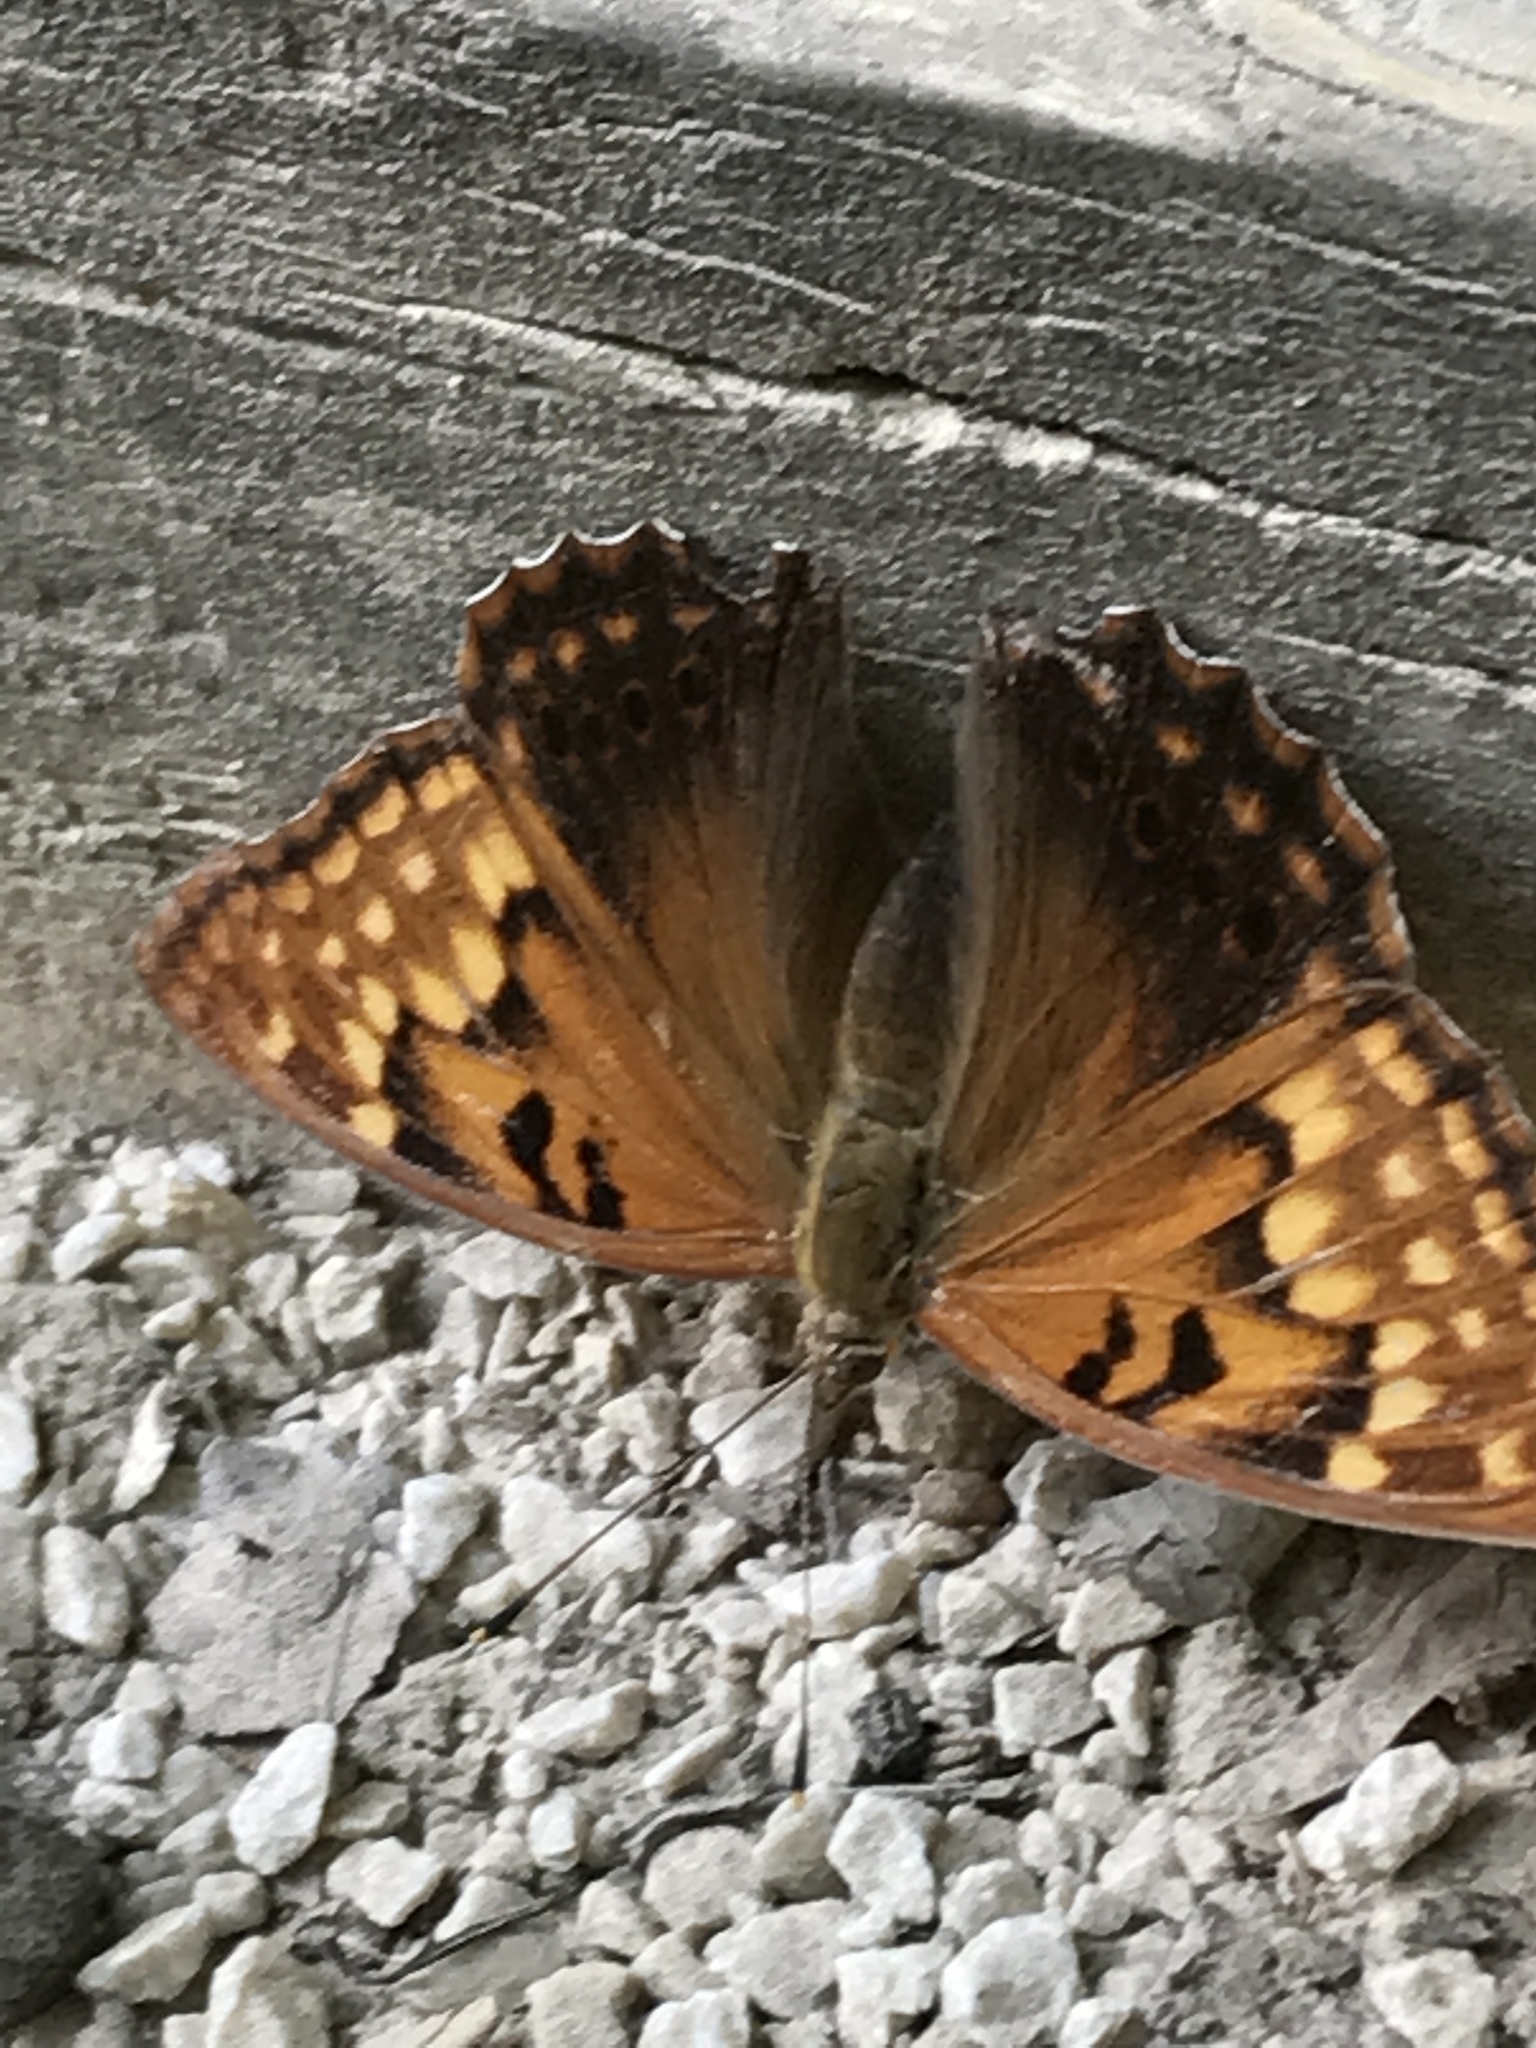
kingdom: Animalia
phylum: Arthropoda
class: Insecta
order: Lepidoptera
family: Nymphalidae
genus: Asterocampa
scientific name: Asterocampa clyton
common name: Tawny emperor
